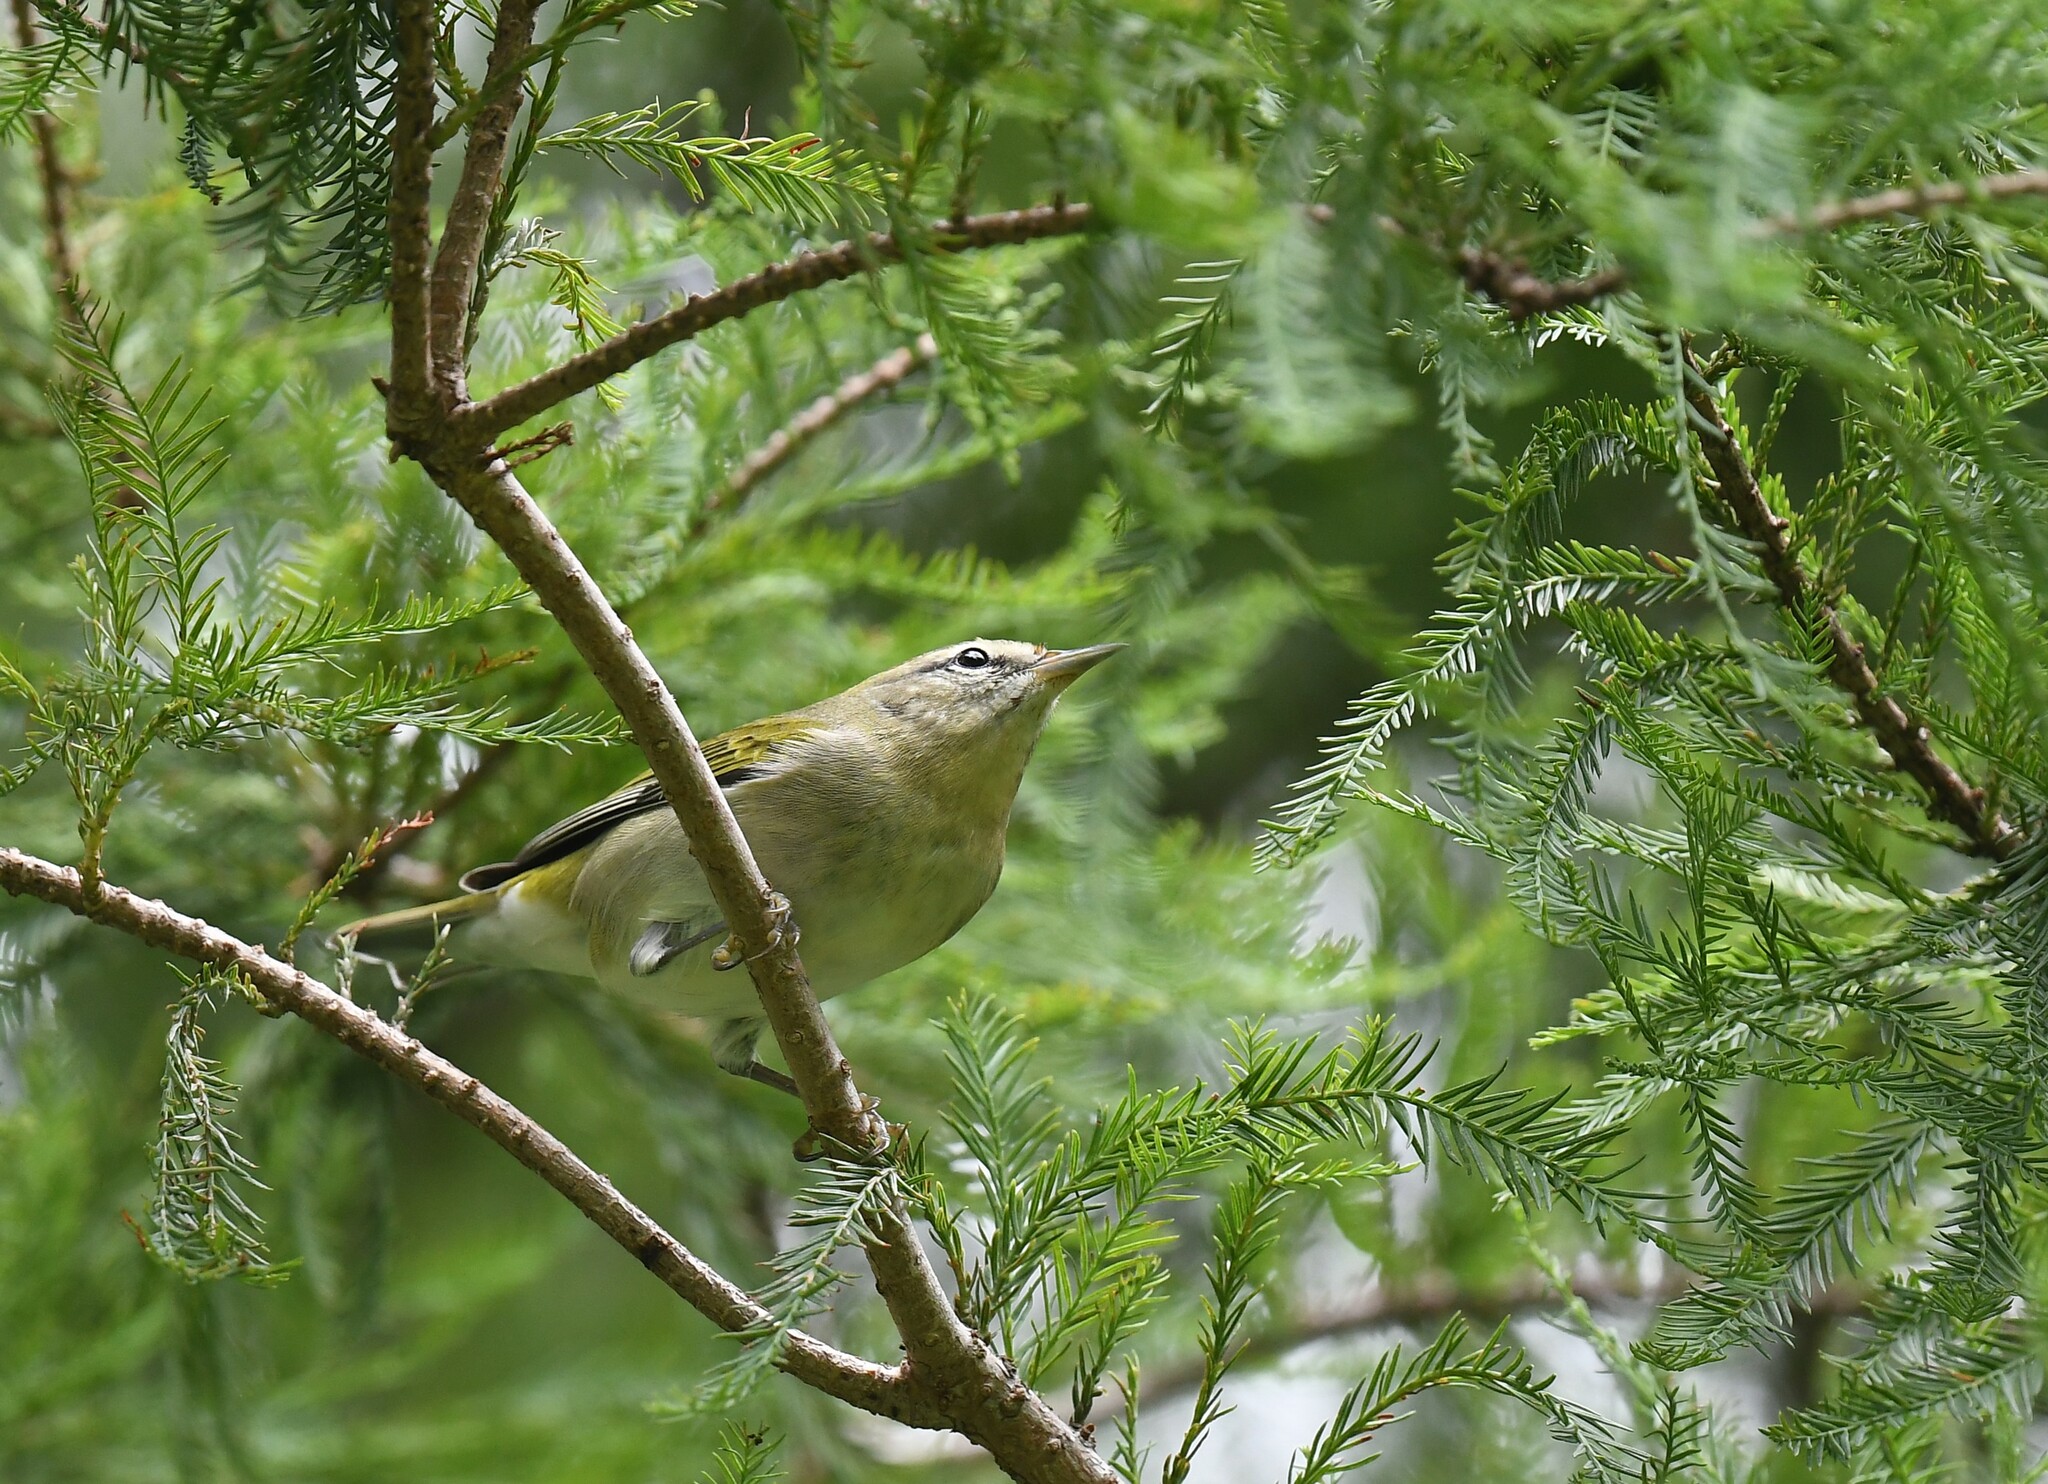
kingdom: Animalia
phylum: Chordata
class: Aves
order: Passeriformes
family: Parulidae
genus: Leiothlypis
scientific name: Leiothlypis peregrina
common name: Tennessee warbler
